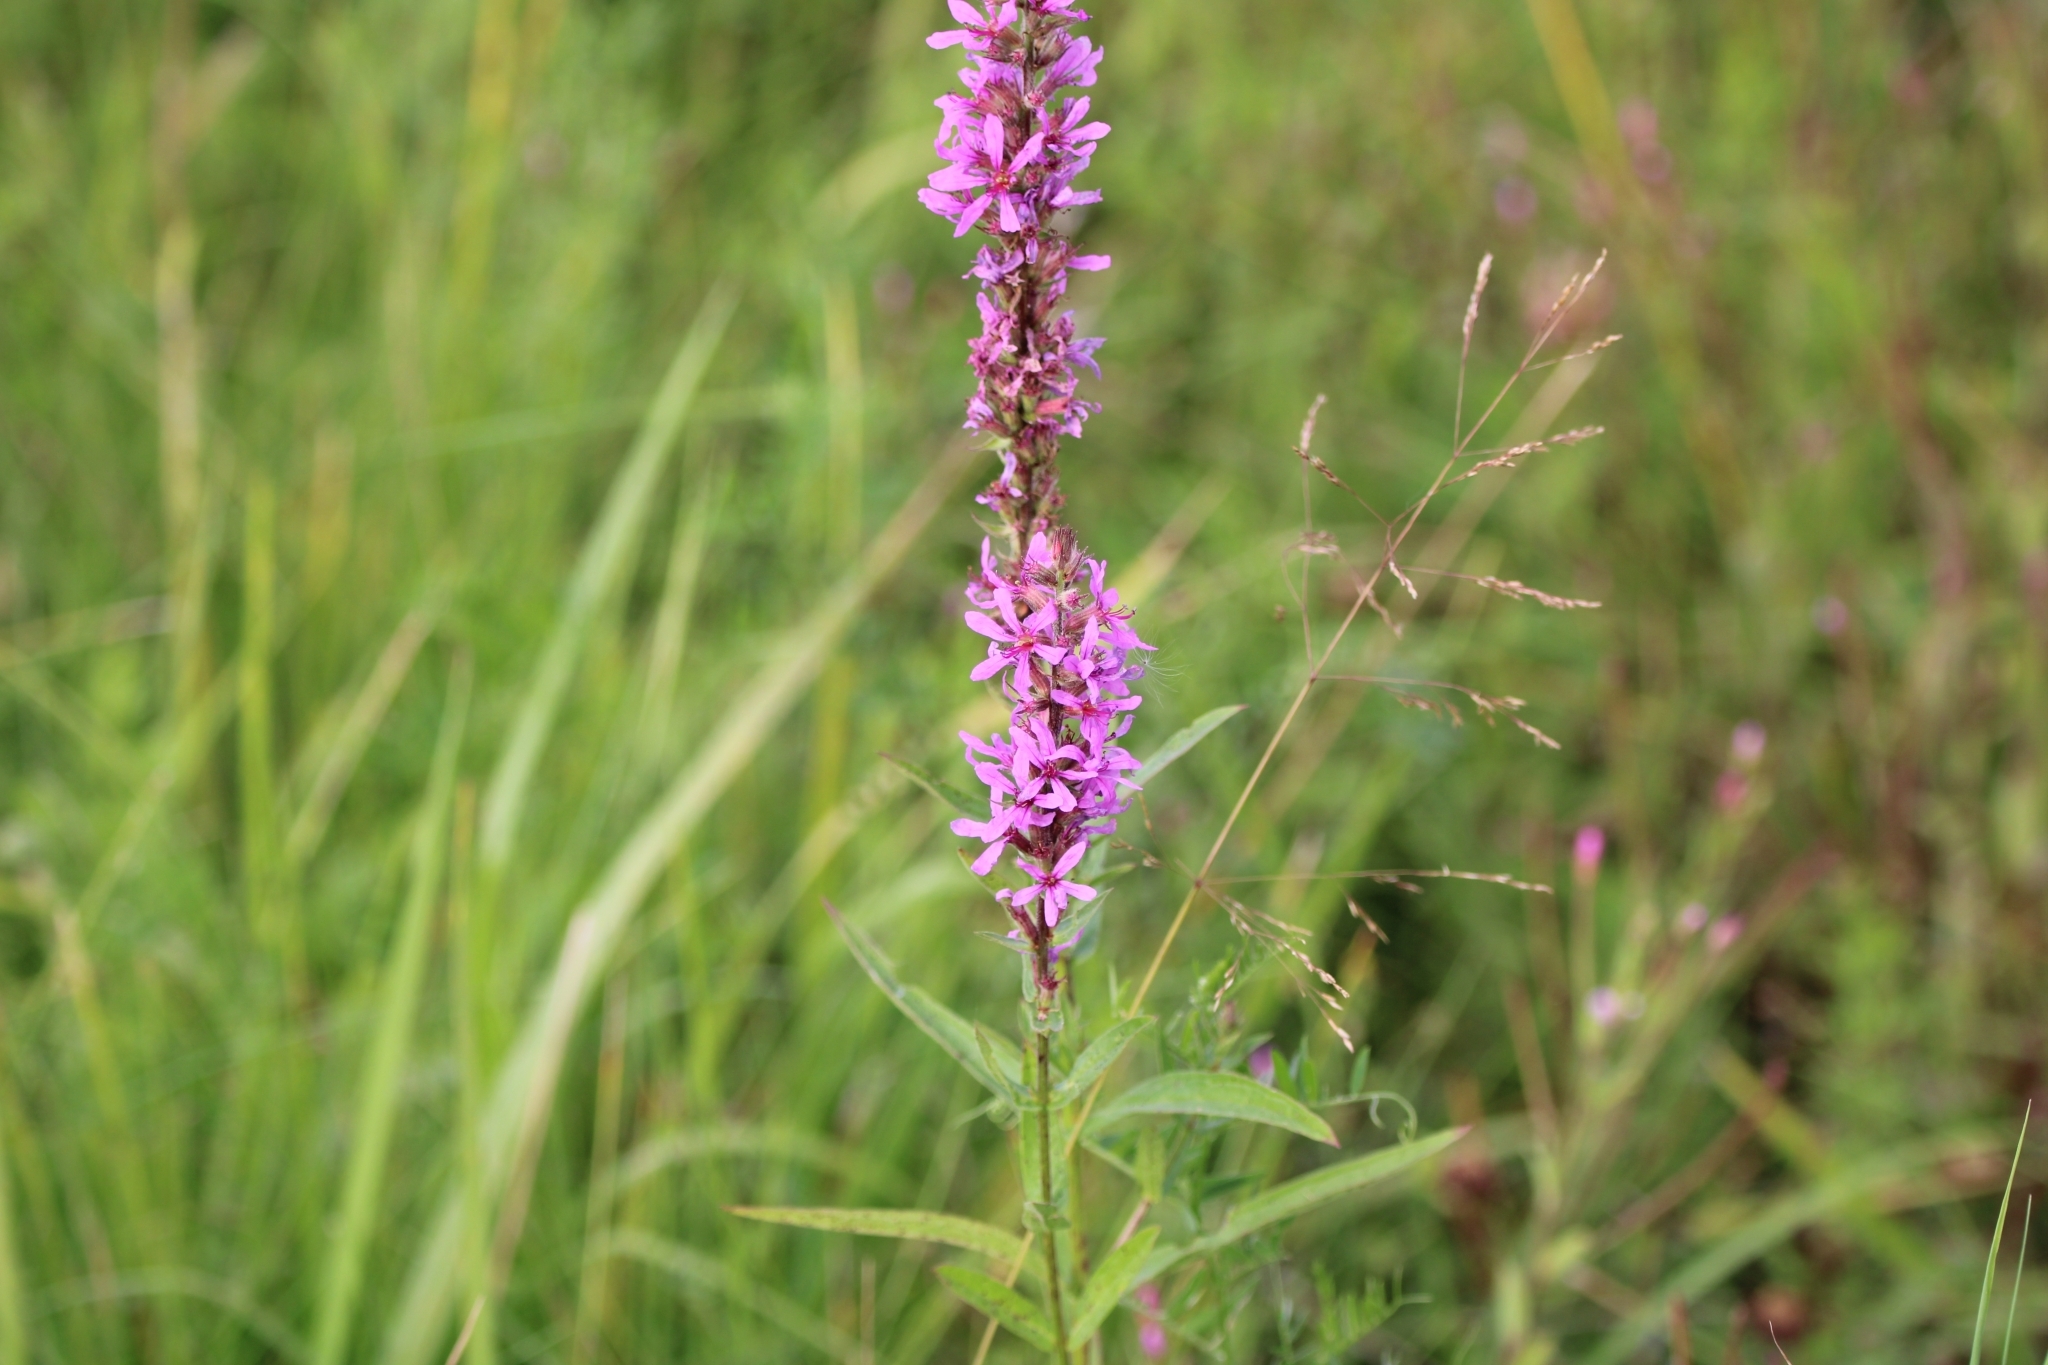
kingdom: Plantae
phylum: Tracheophyta
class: Magnoliopsida
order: Myrtales
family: Lythraceae
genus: Lythrum
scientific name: Lythrum salicaria
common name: Purple loosestrife
